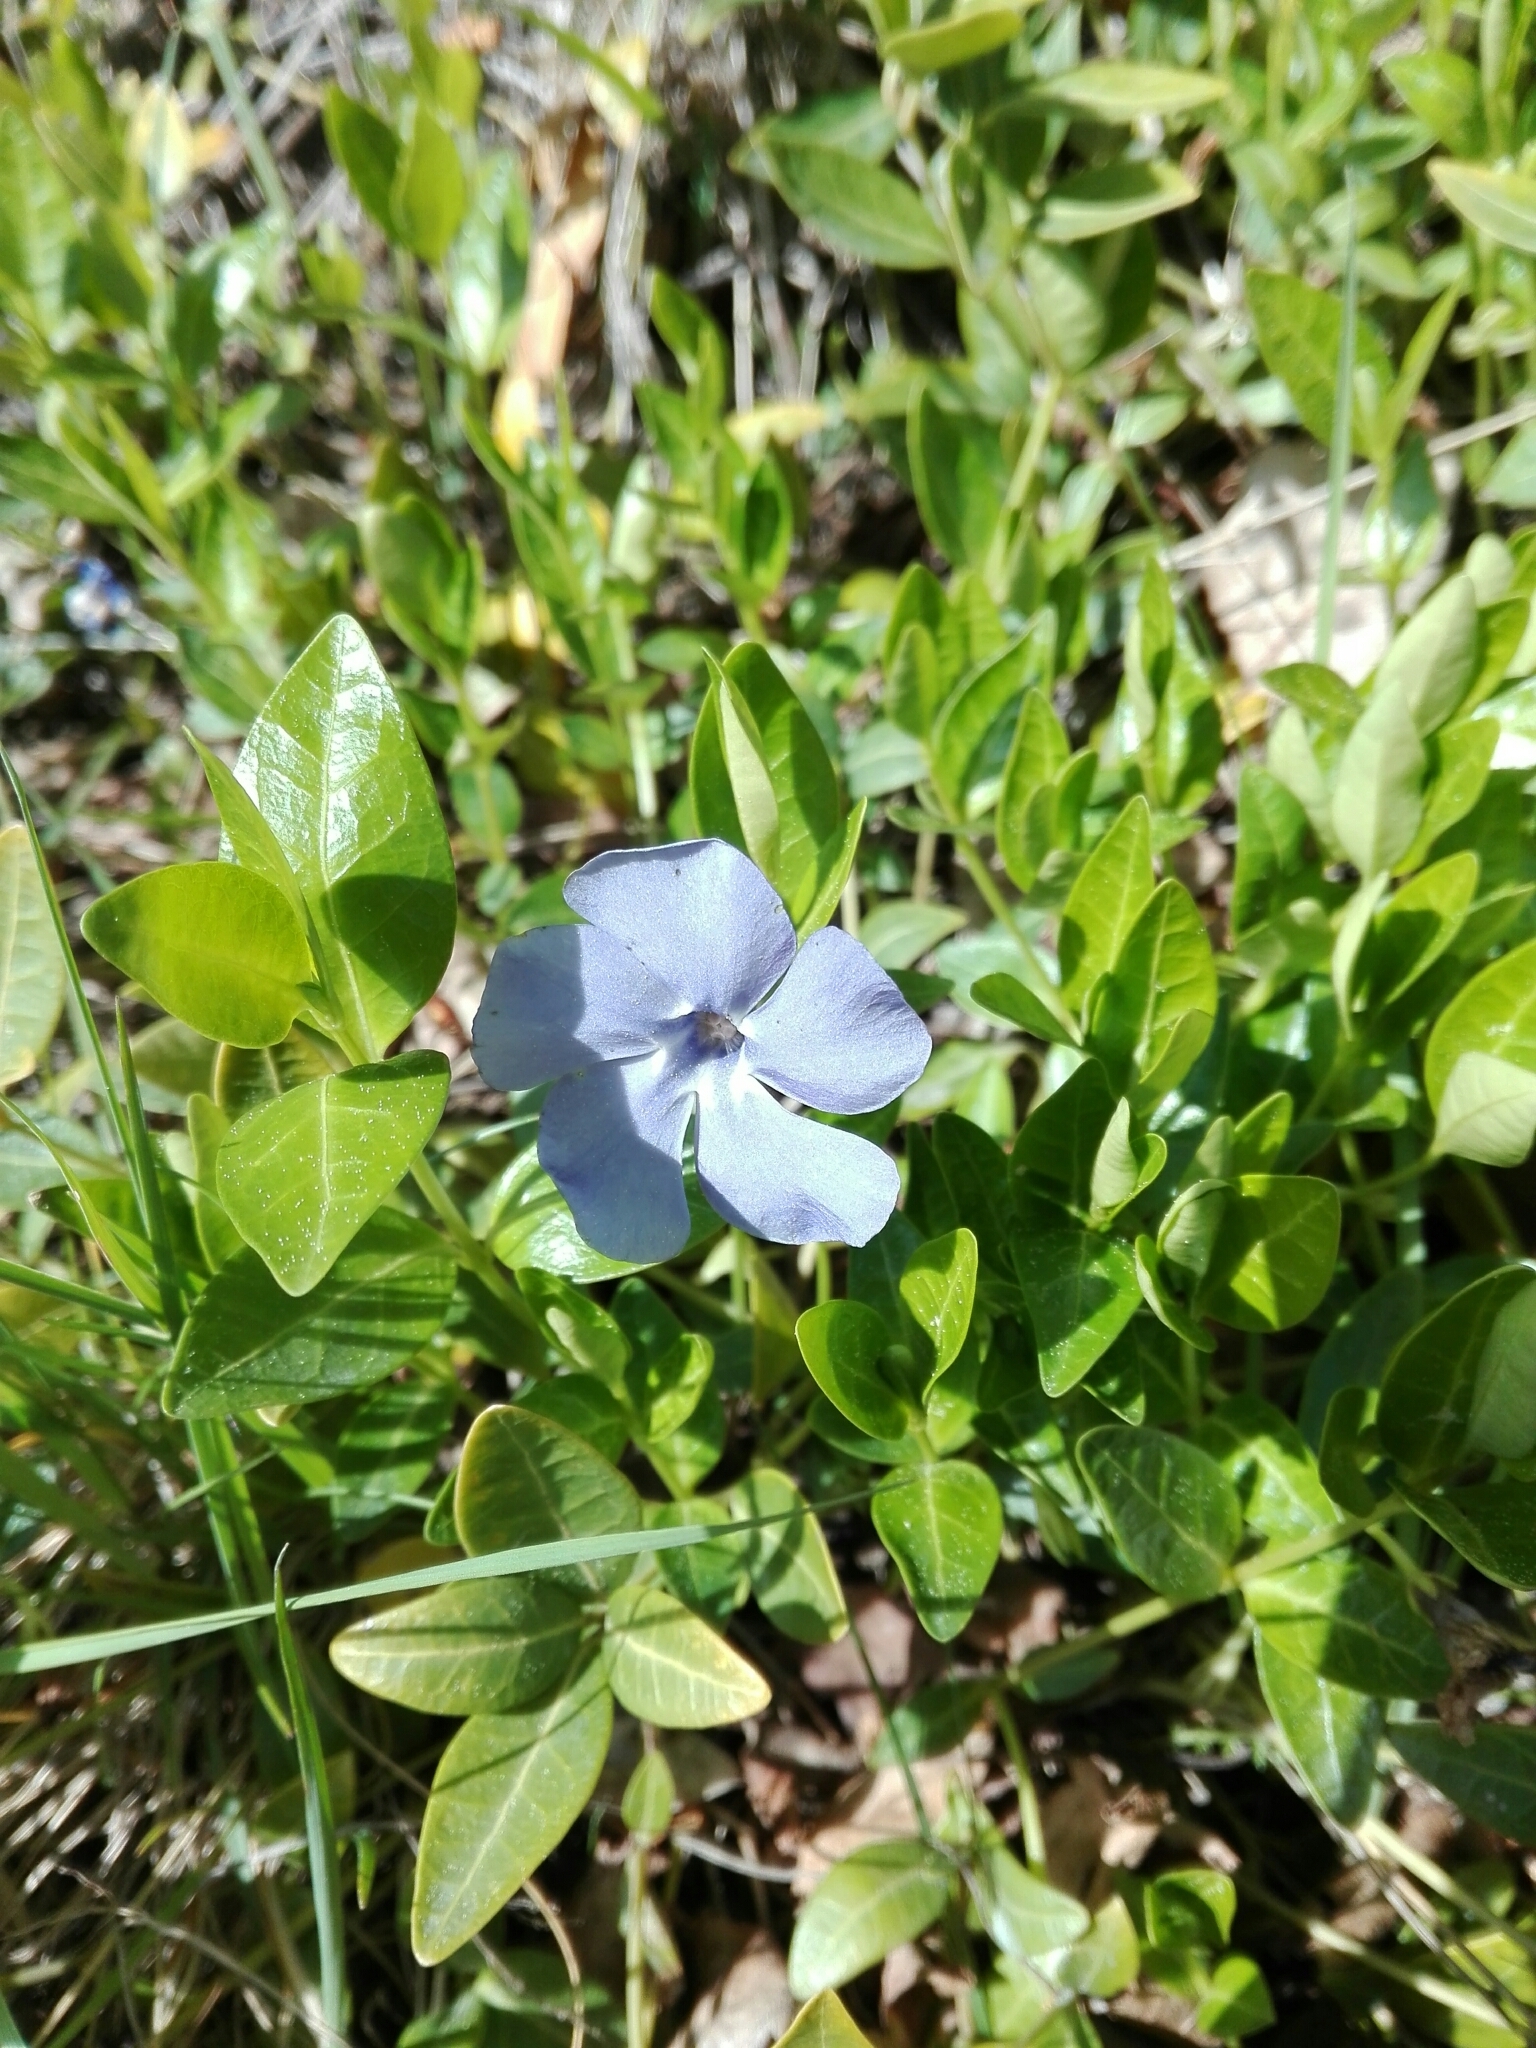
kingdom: Plantae
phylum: Tracheophyta
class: Magnoliopsida
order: Gentianales
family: Apocynaceae
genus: Vinca
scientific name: Vinca minor
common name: Lesser periwinkle
